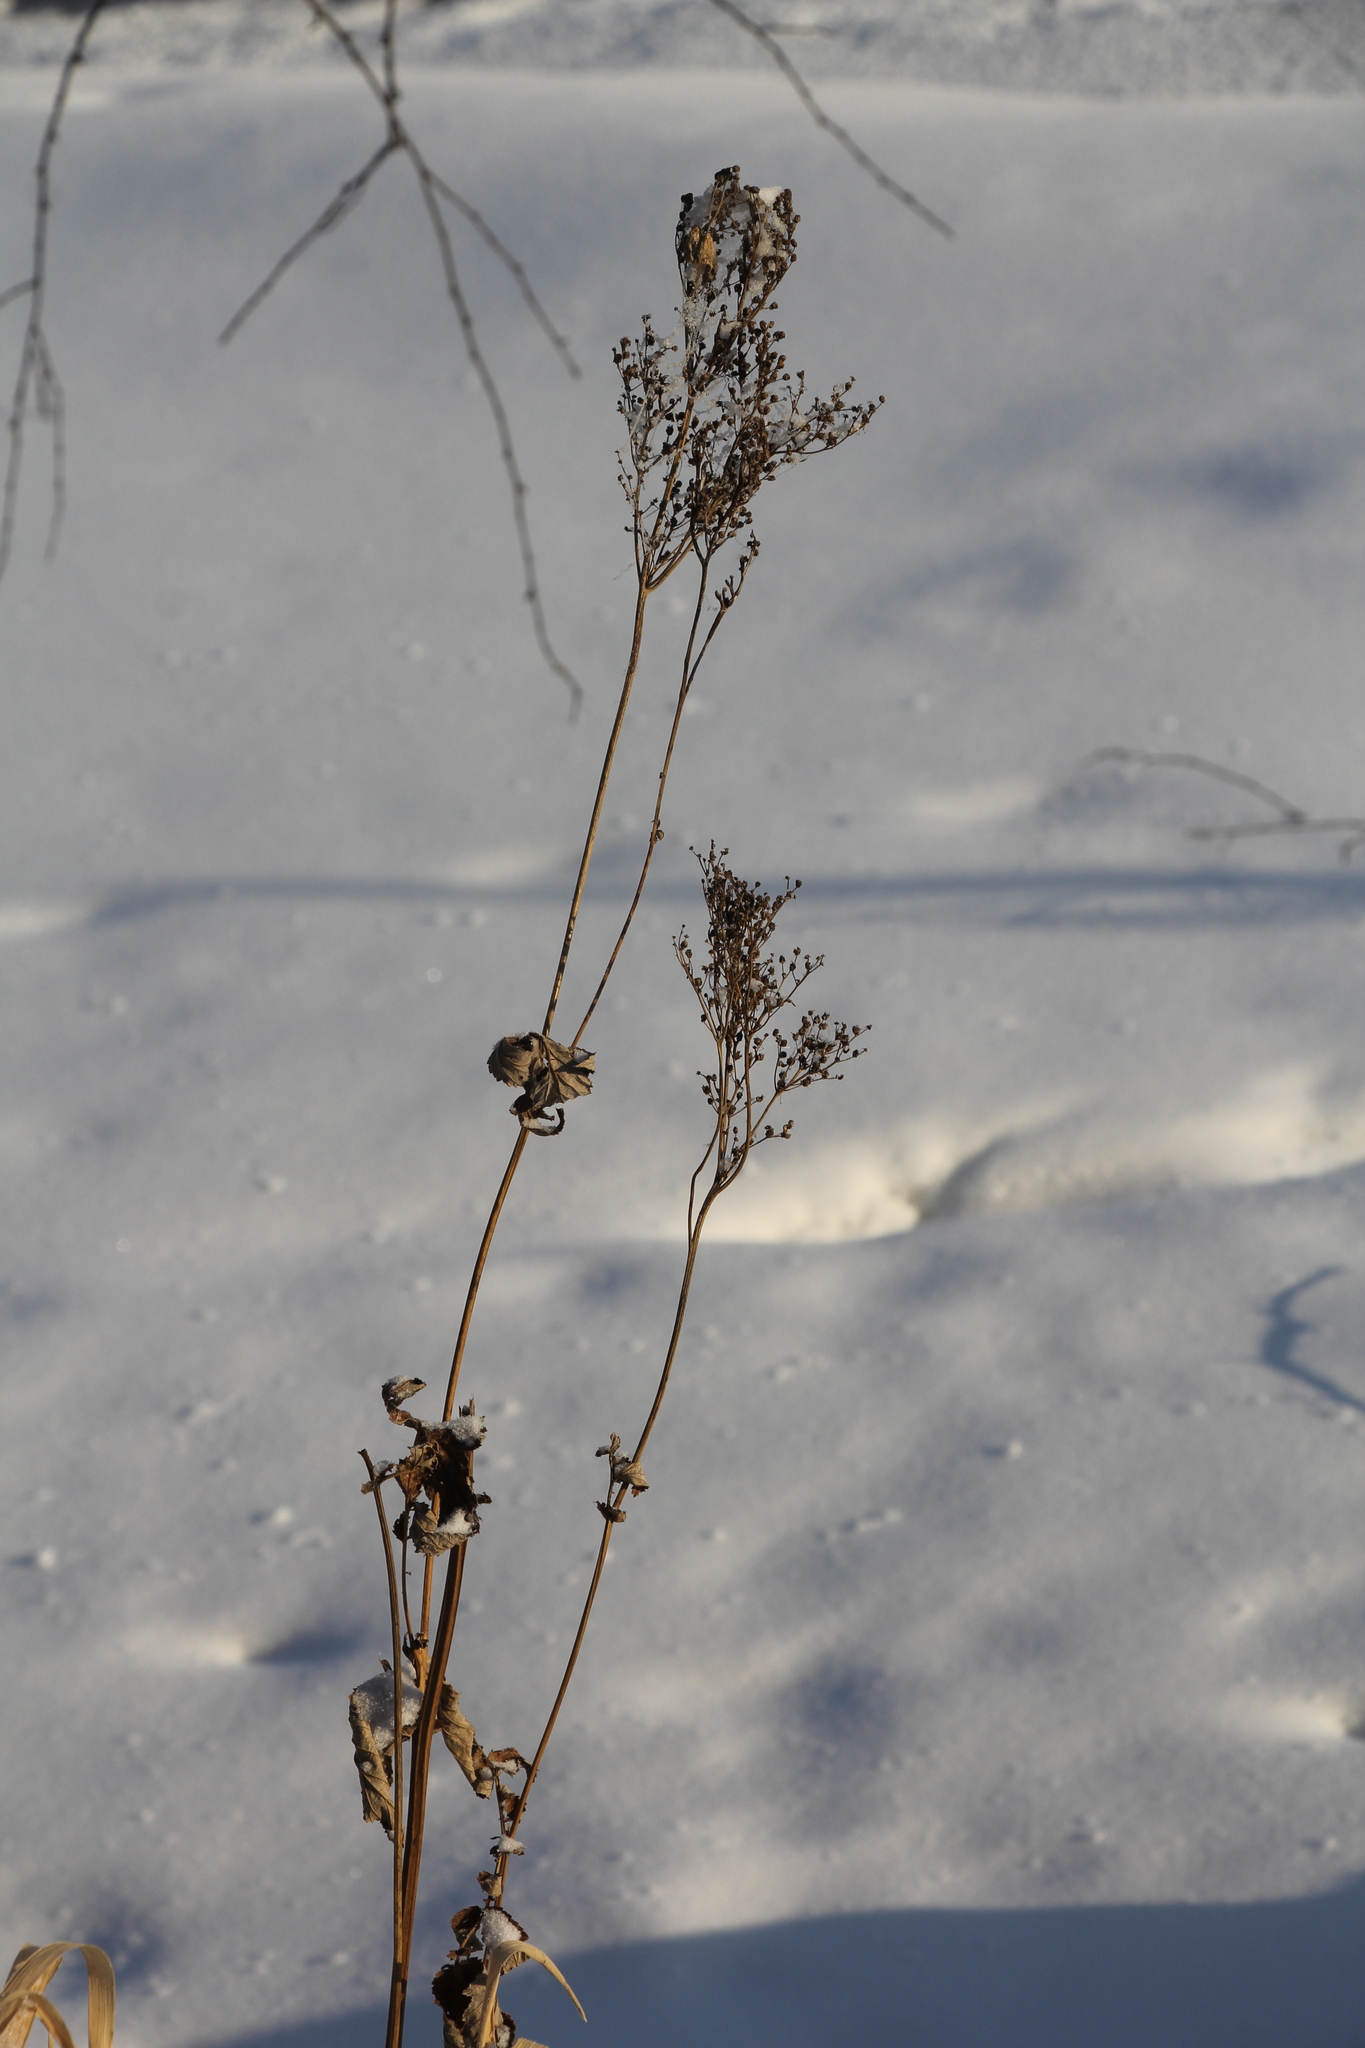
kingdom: Plantae
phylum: Tracheophyta
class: Magnoliopsida
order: Rosales
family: Rosaceae
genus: Filipendula
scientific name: Filipendula ulmaria
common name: Meadowsweet
